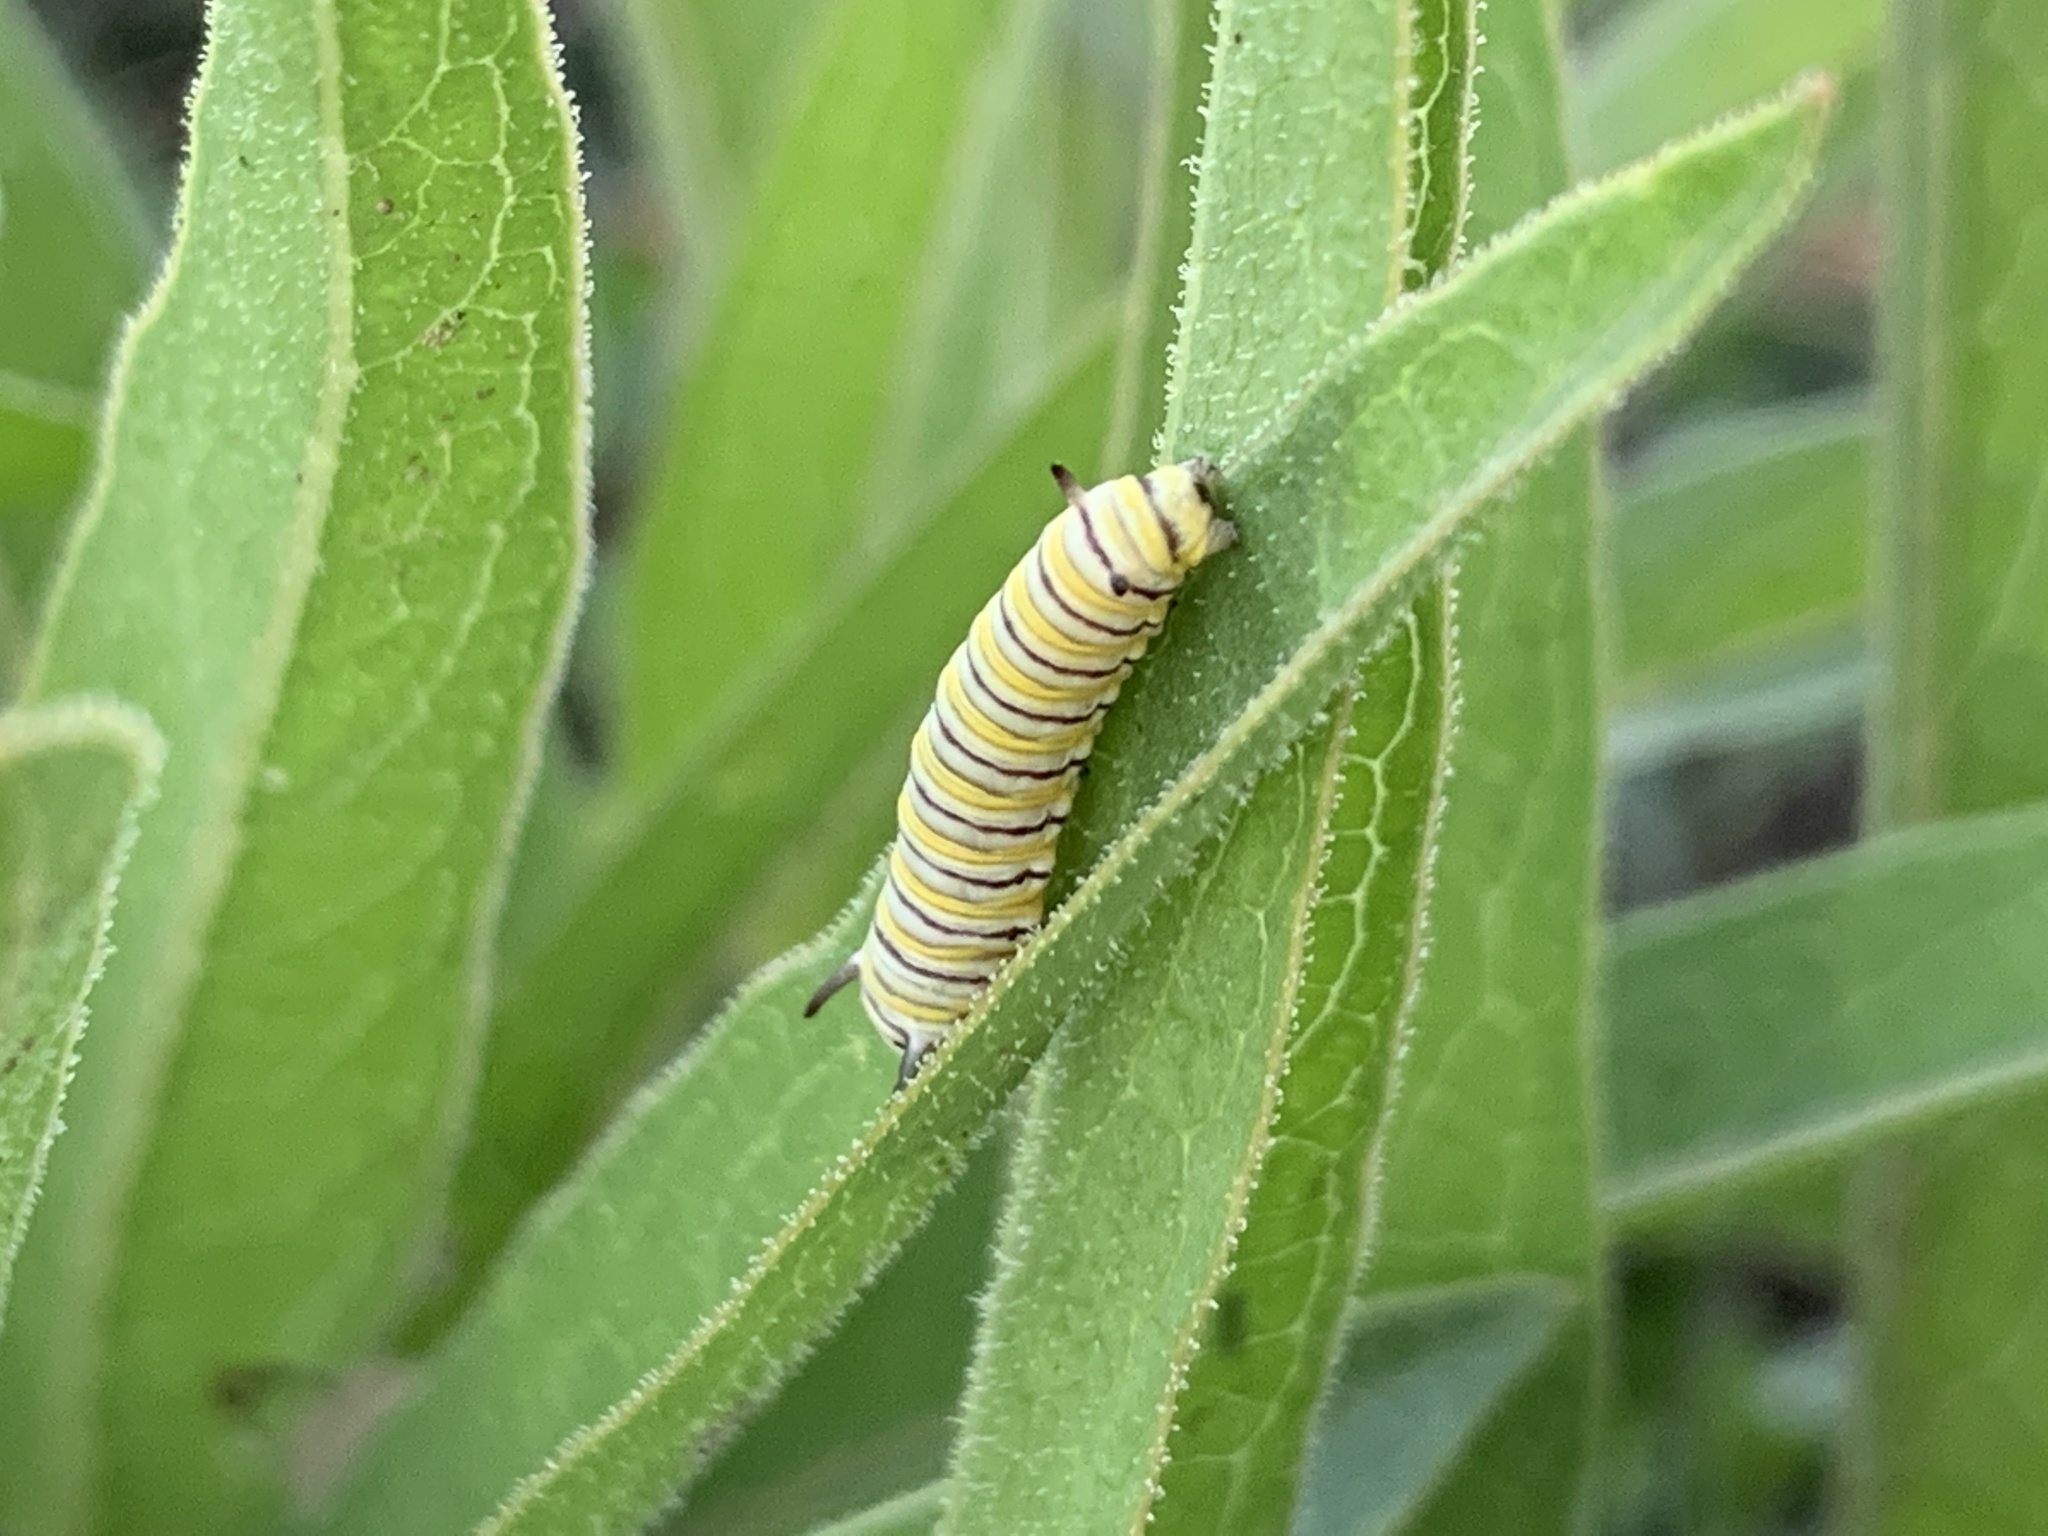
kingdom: Animalia
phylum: Arthropoda
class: Insecta
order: Lepidoptera
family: Nymphalidae
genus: Danaus
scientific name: Danaus plexippus
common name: Monarch
